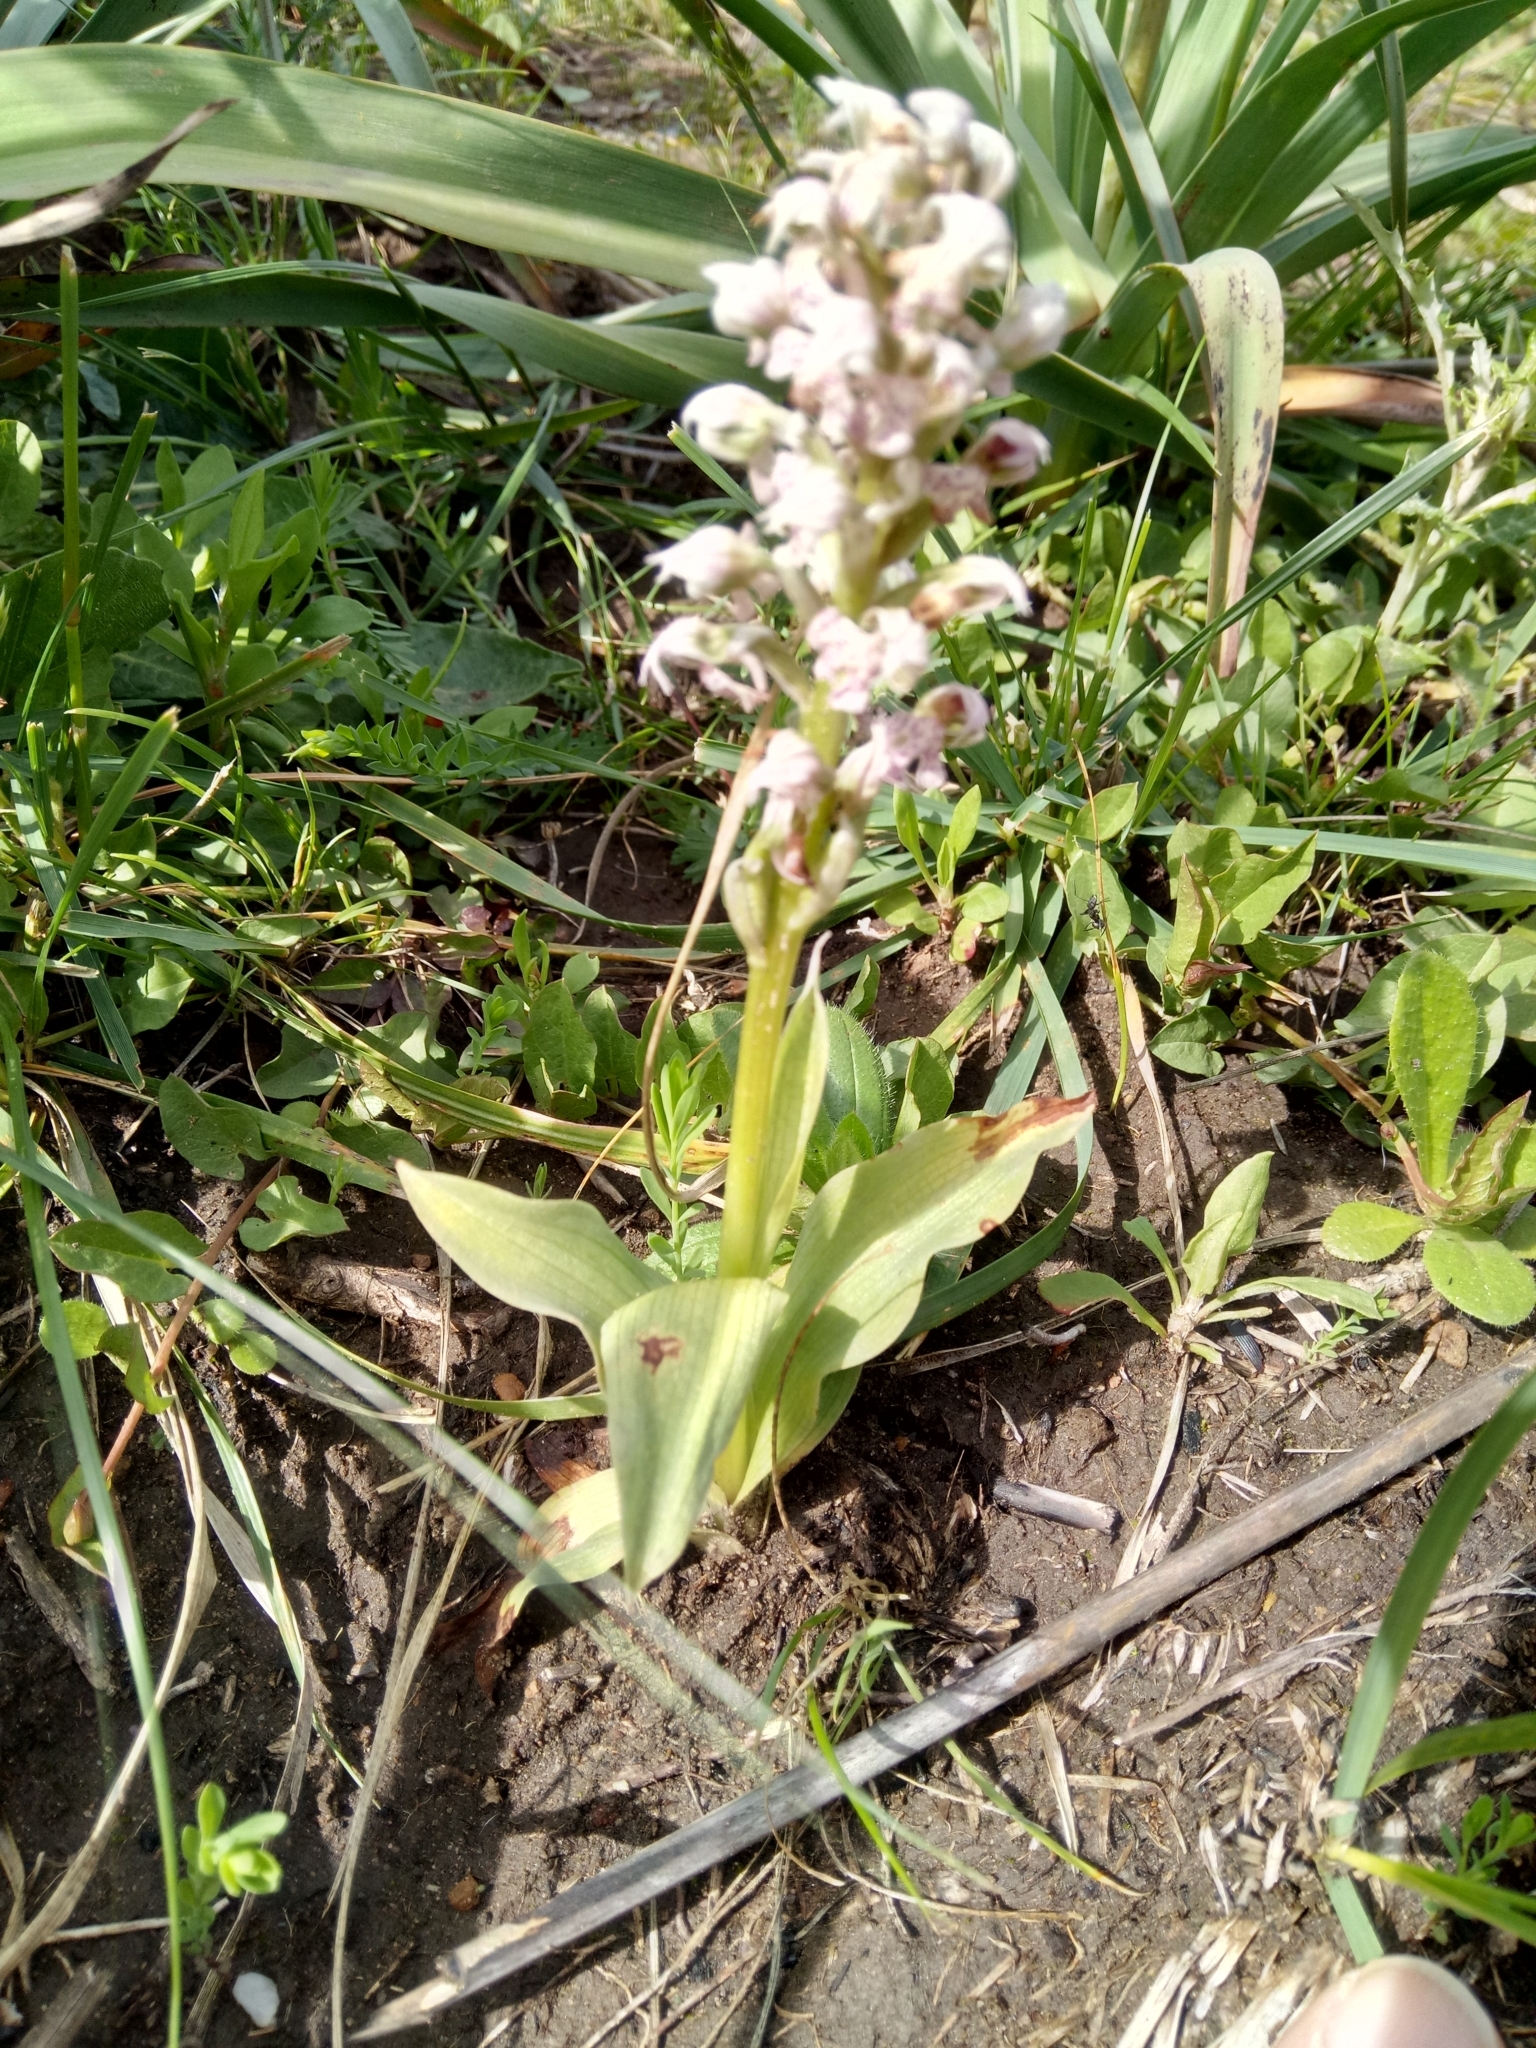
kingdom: Plantae
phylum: Tracheophyta
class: Liliopsida
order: Asparagales
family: Orchidaceae
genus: Neotinea
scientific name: Neotinea lactea
